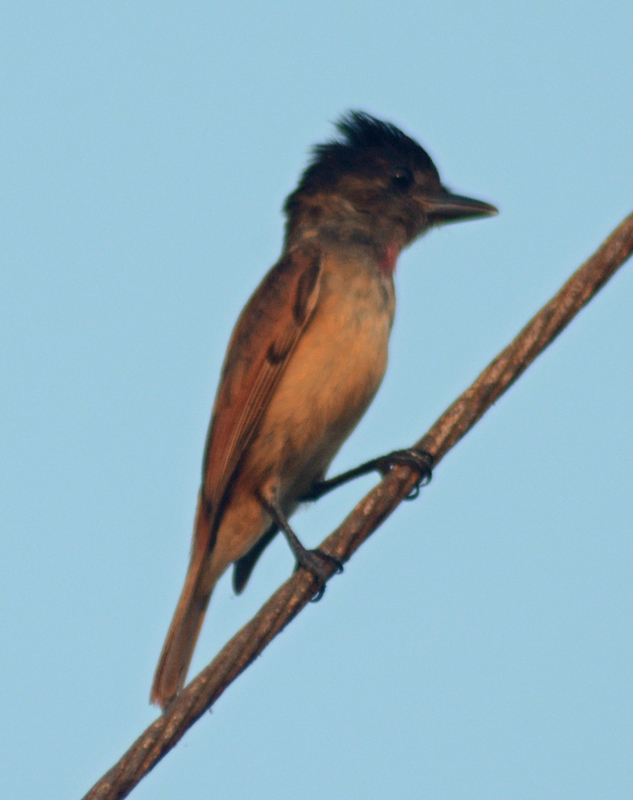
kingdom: Animalia
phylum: Chordata
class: Aves
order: Passeriformes
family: Cotingidae
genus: Pachyramphus
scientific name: Pachyramphus aglaiae
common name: Rose-throated becard
